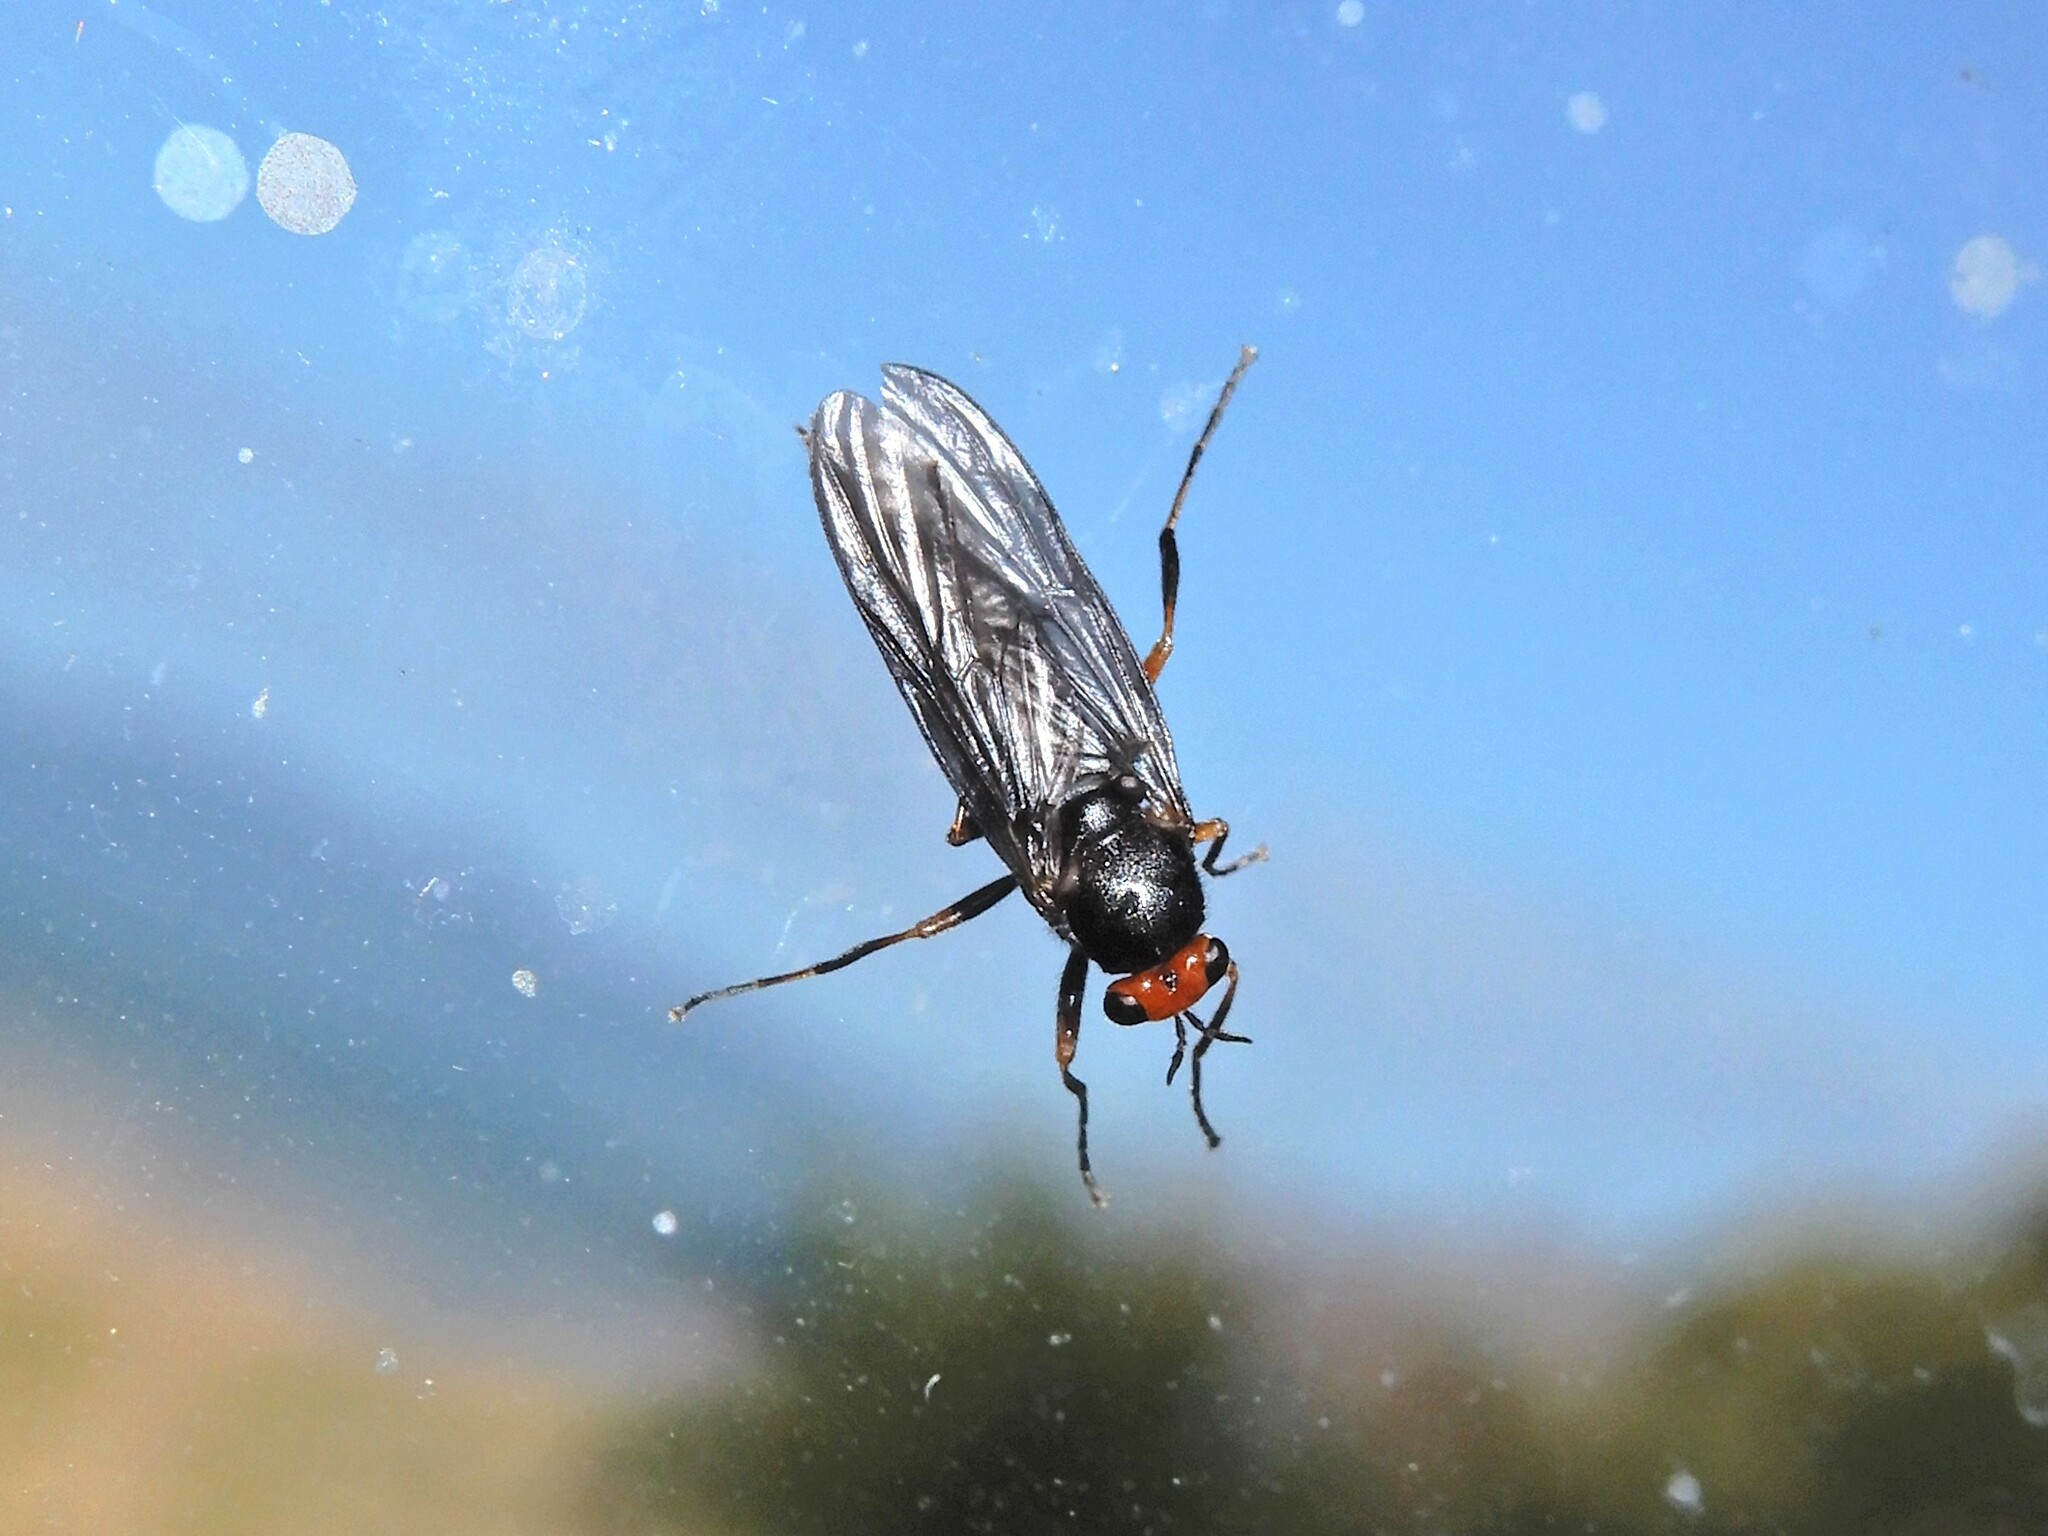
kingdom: Animalia
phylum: Arthropoda
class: Insecta
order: Diptera
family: Stratiomyidae
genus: Inopus
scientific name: Inopus rubriceps
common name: Soldier fly
